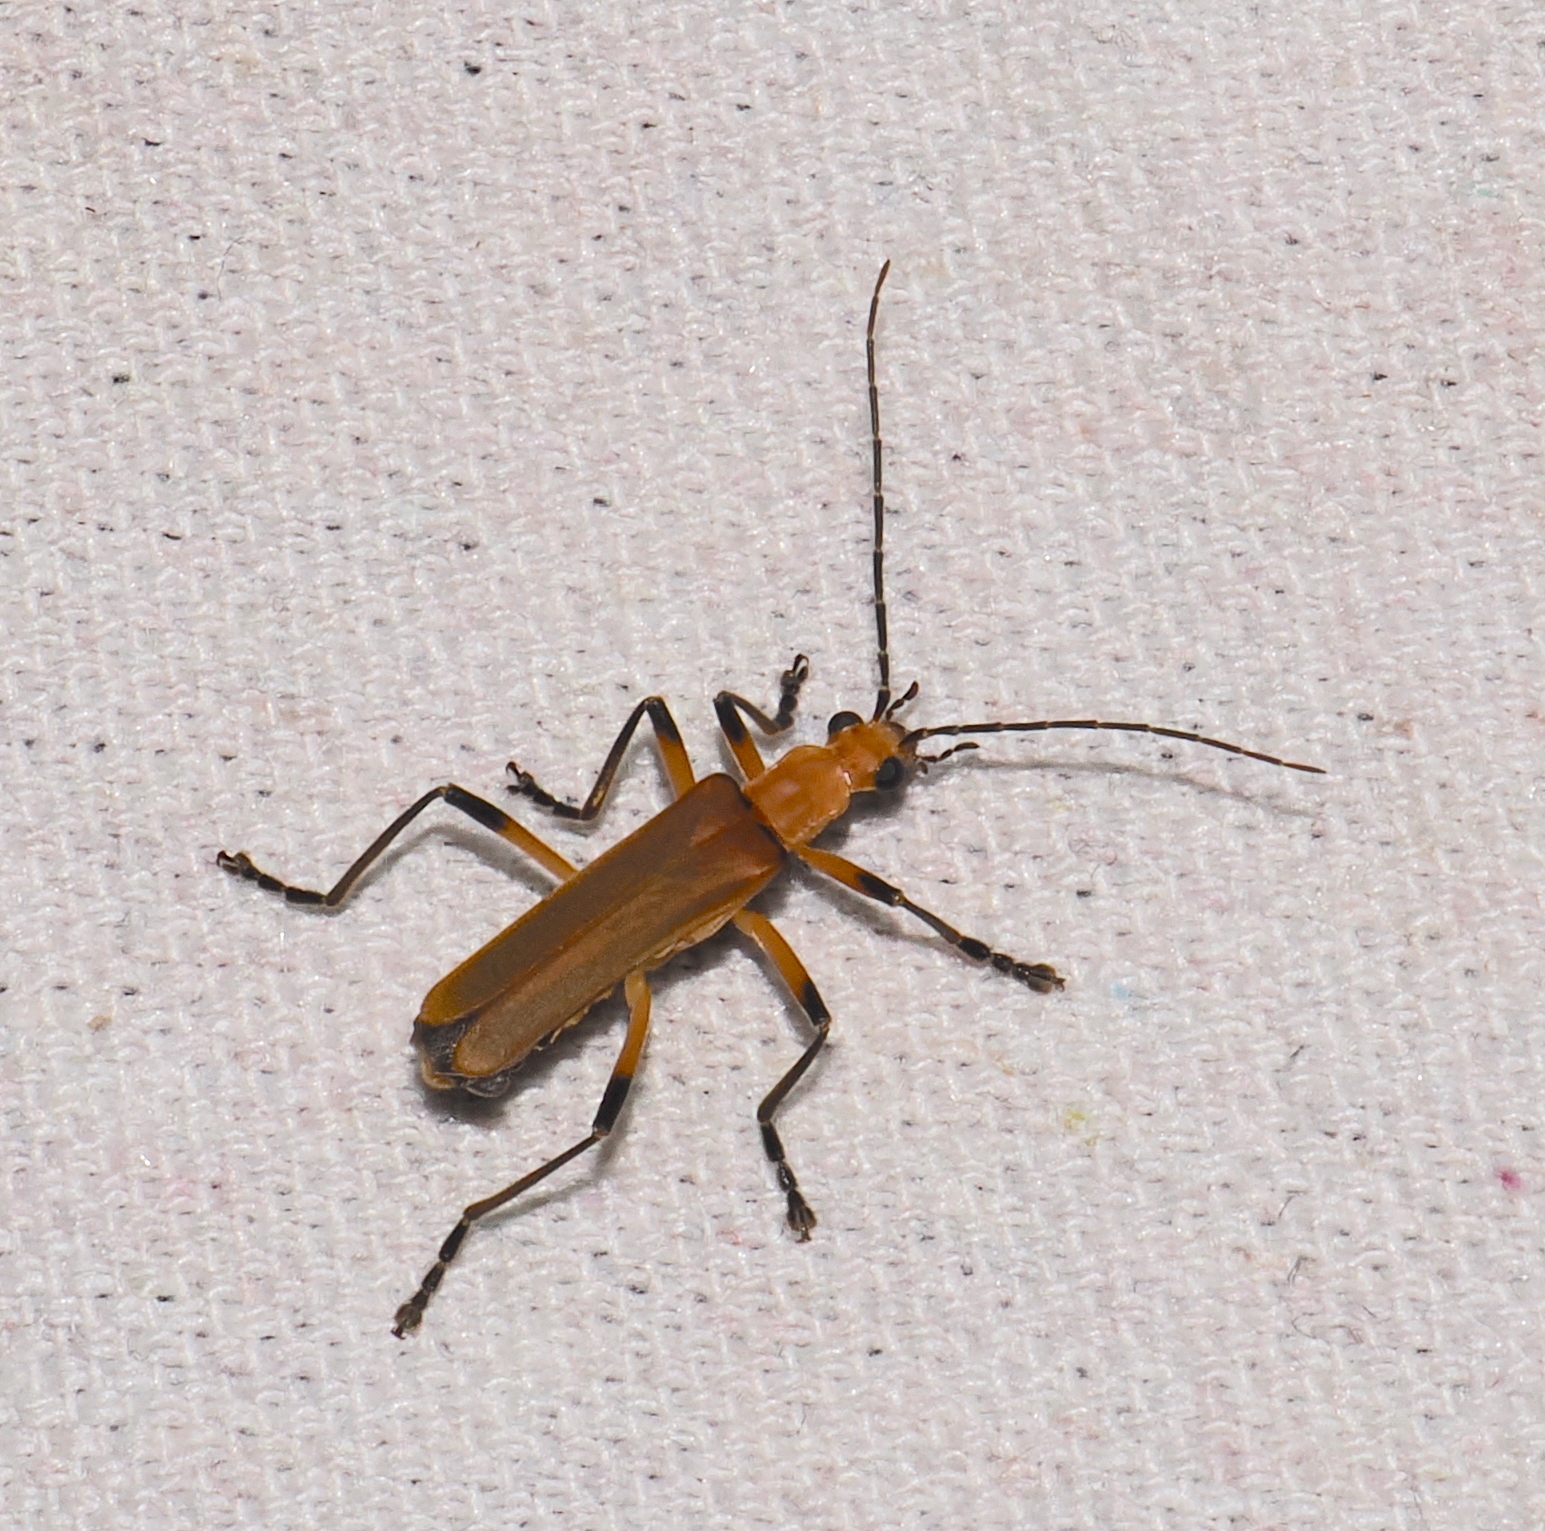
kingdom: Animalia
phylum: Arthropoda
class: Insecta
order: Coleoptera
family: Cantharidae
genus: Chauliognathus
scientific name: Chauliognathus
